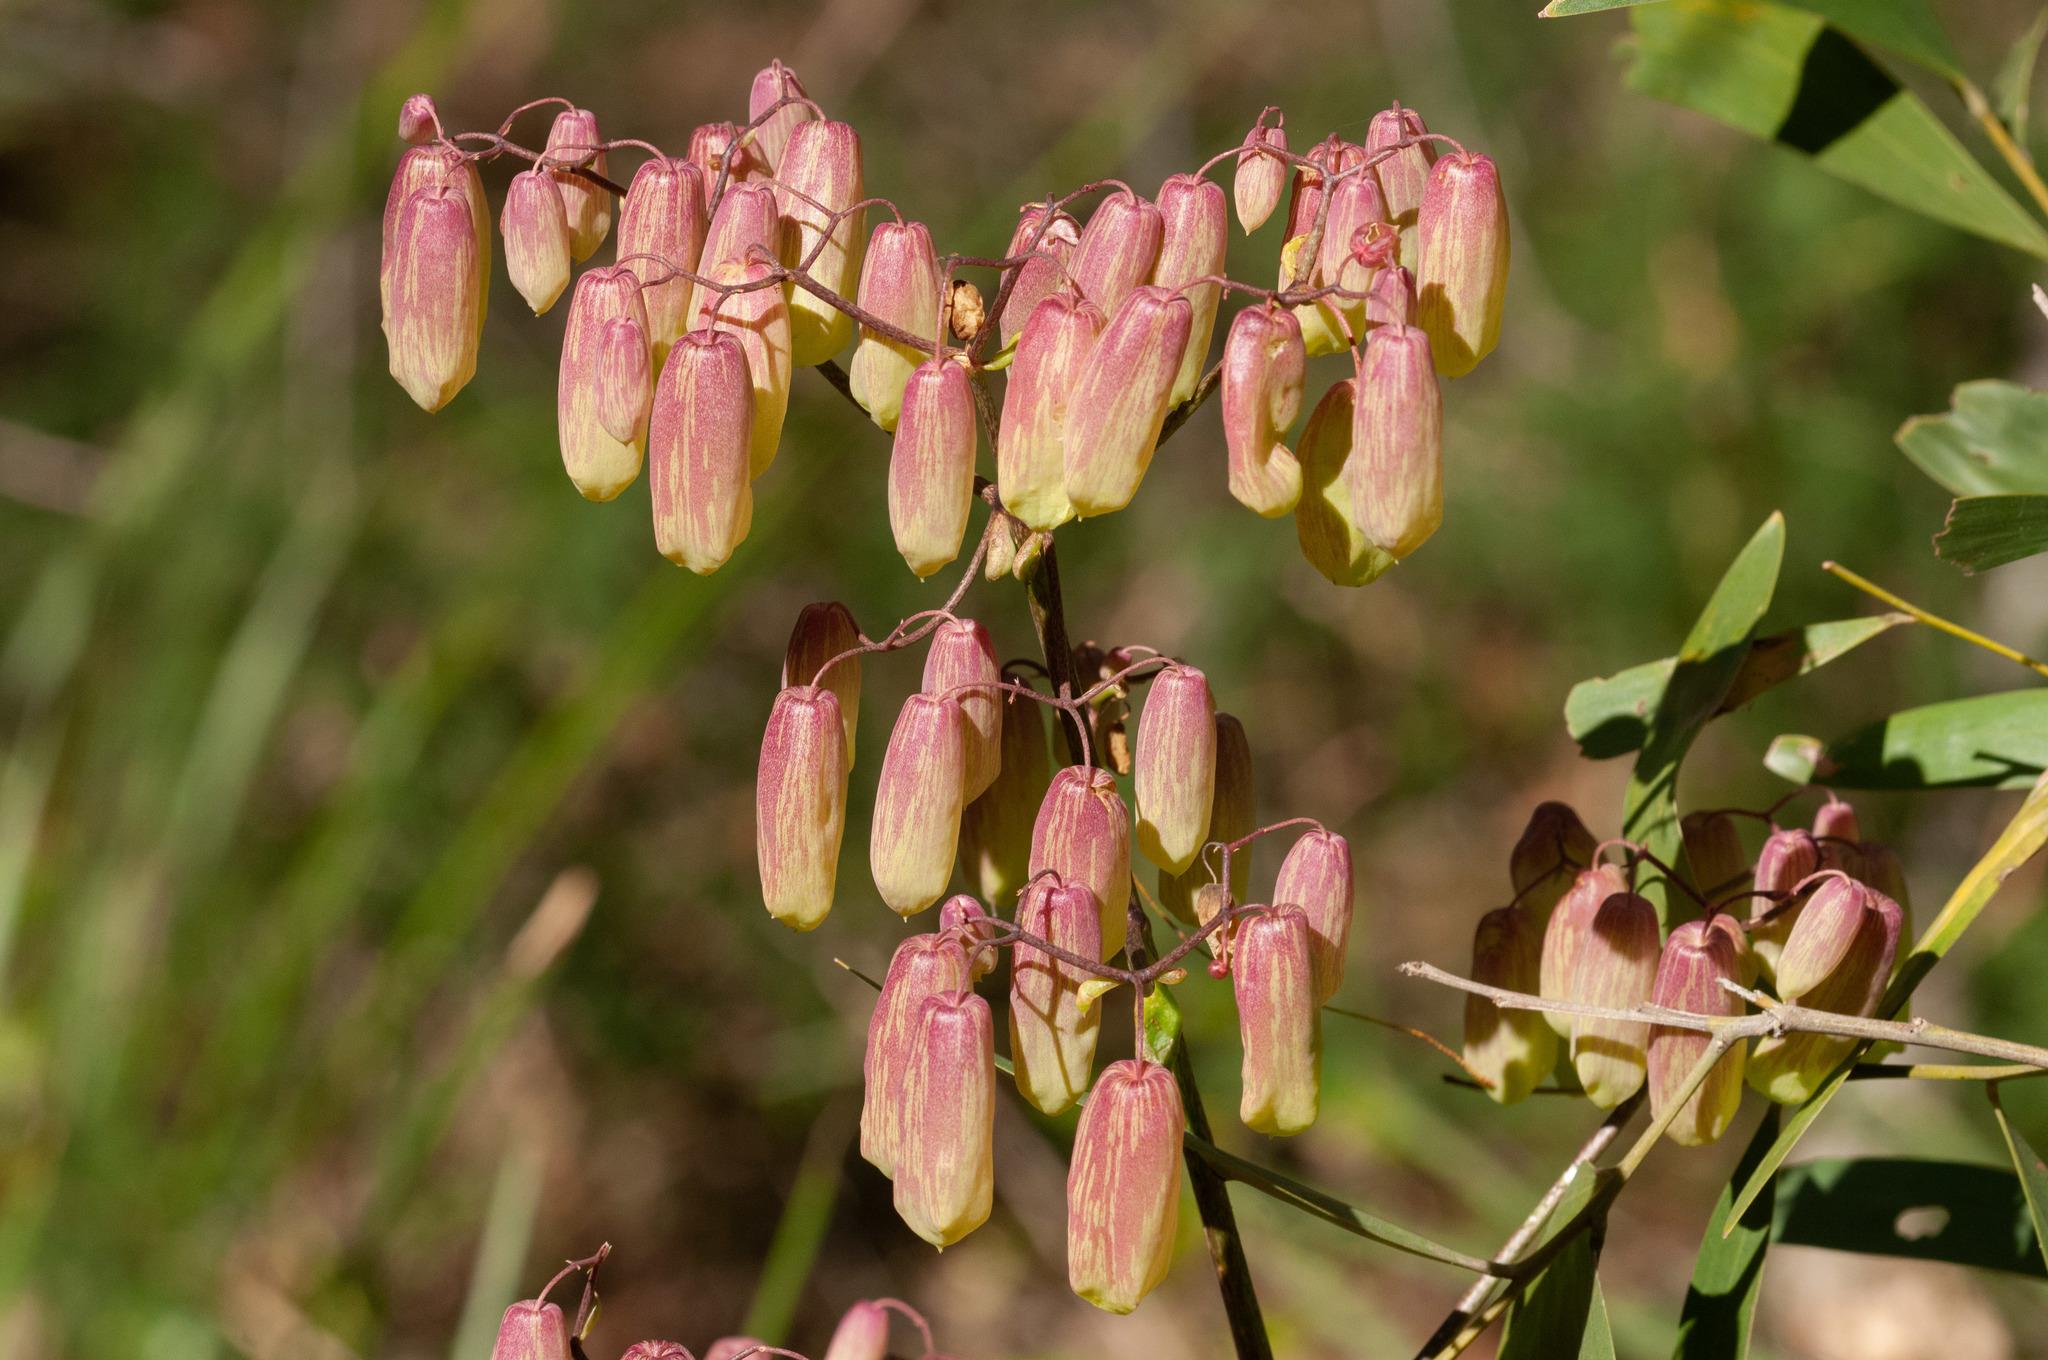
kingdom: Plantae
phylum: Tracheophyta
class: Magnoliopsida
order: Saxifragales
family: Crassulaceae
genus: Kalanchoe
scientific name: Kalanchoe pinnata
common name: Cathedral bells
